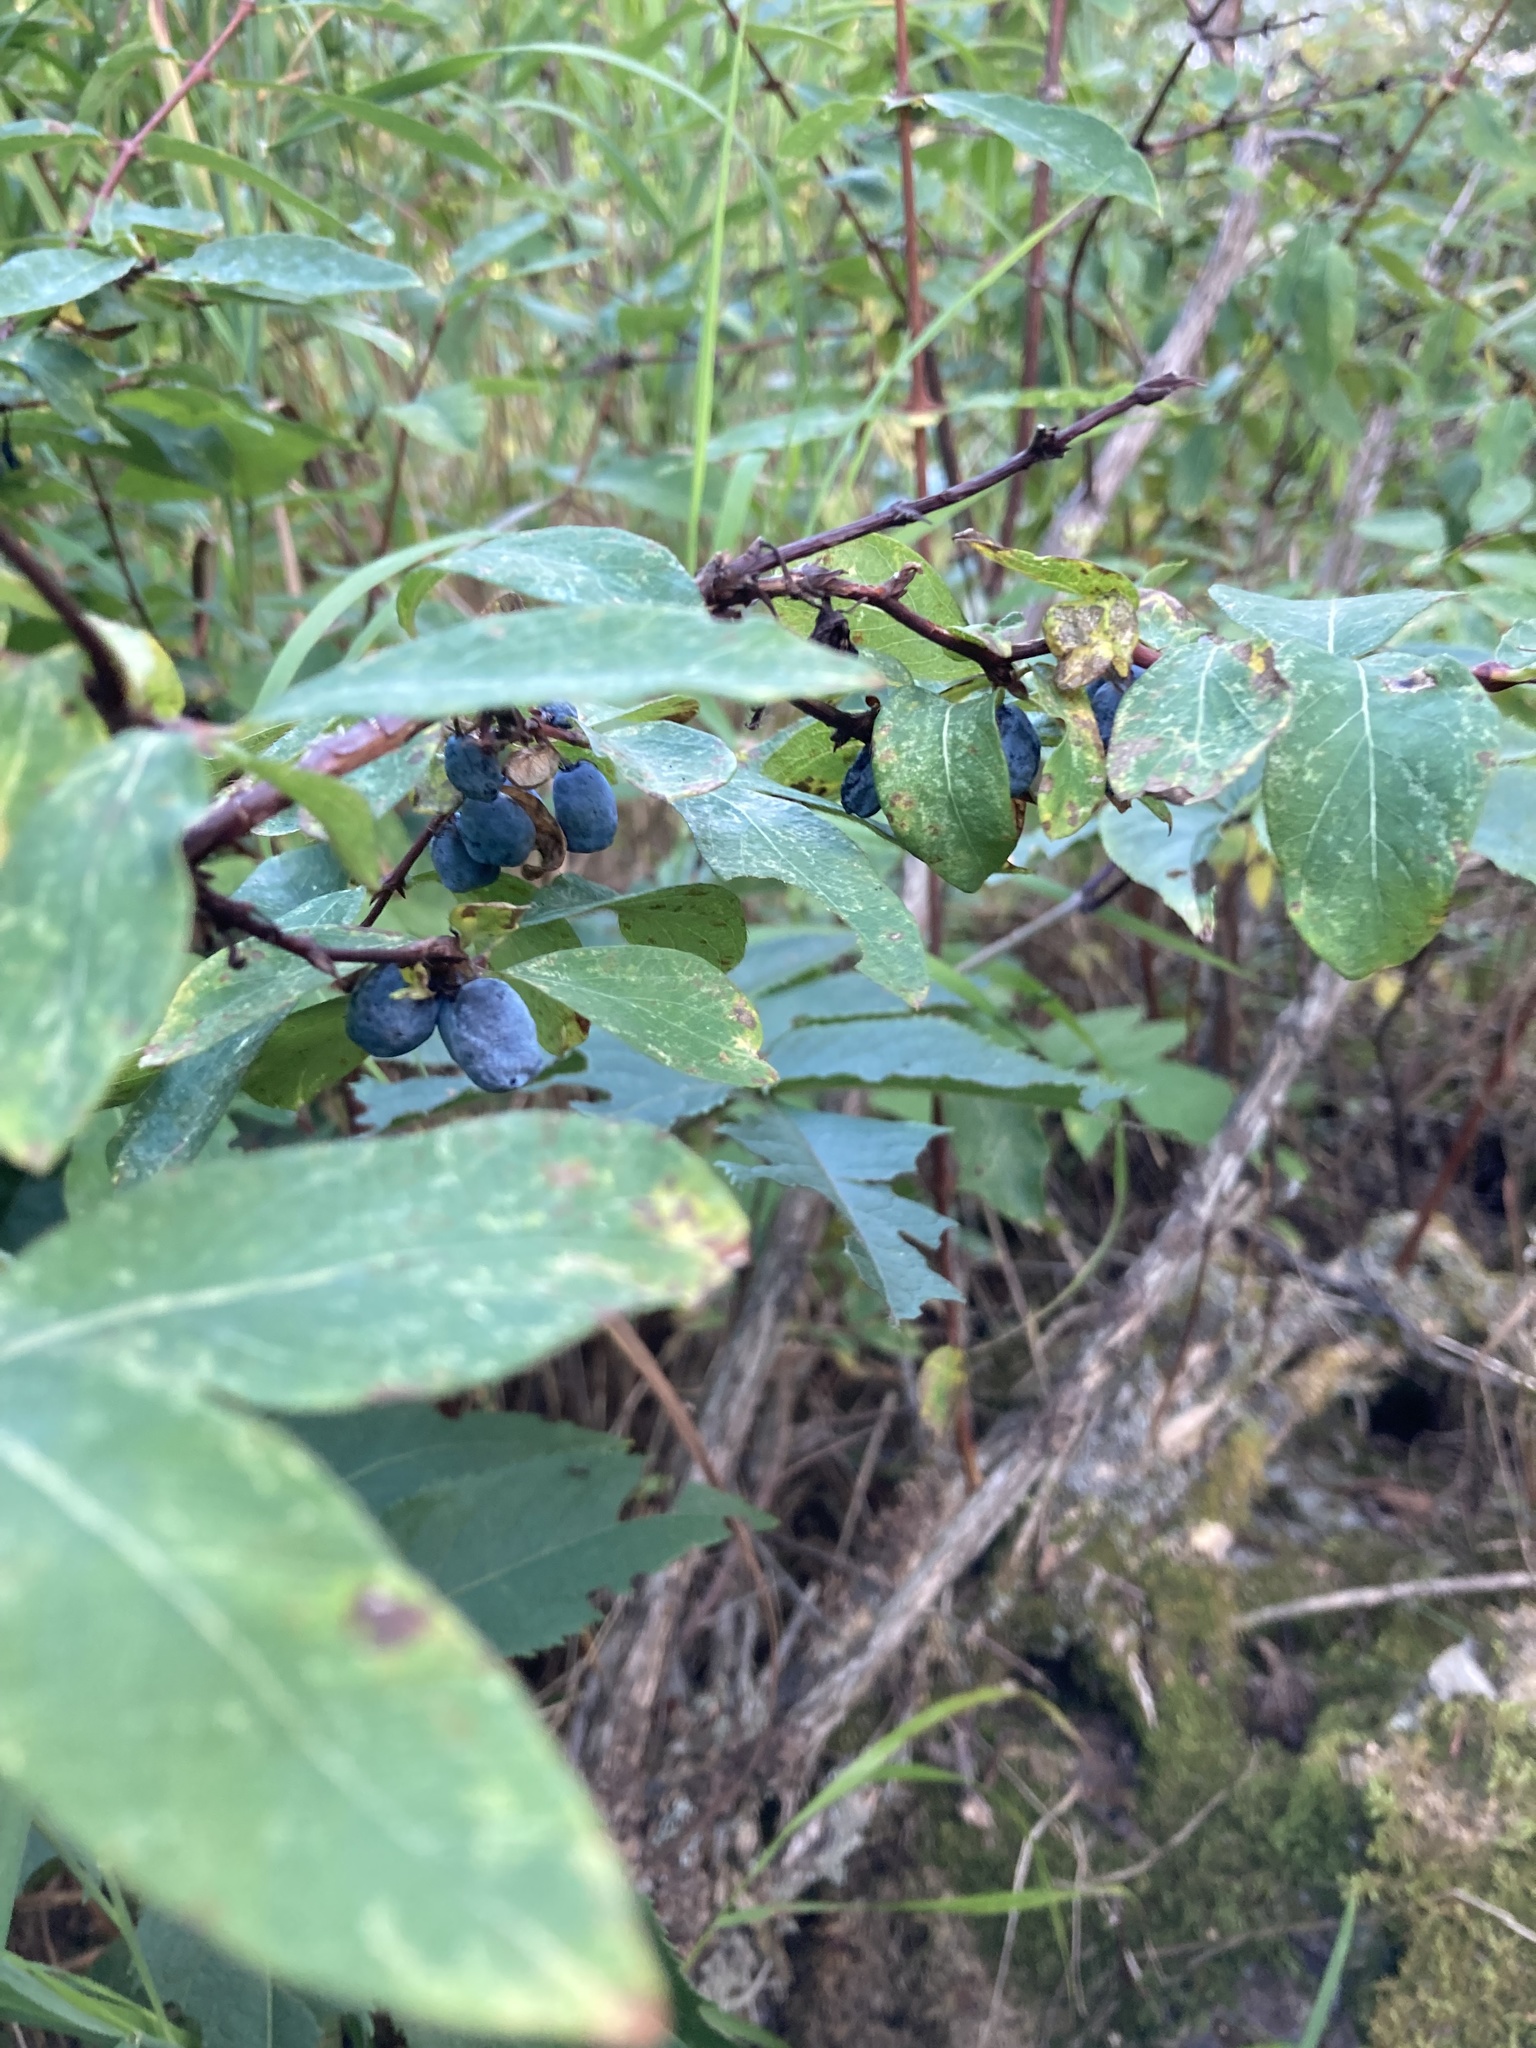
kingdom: Plantae
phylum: Tracheophyta
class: Magnoliopsida
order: Dipsacales
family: Caprifoliaceae
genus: Lonicera
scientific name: Lonicera caerulea
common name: Blue honeysuckle
